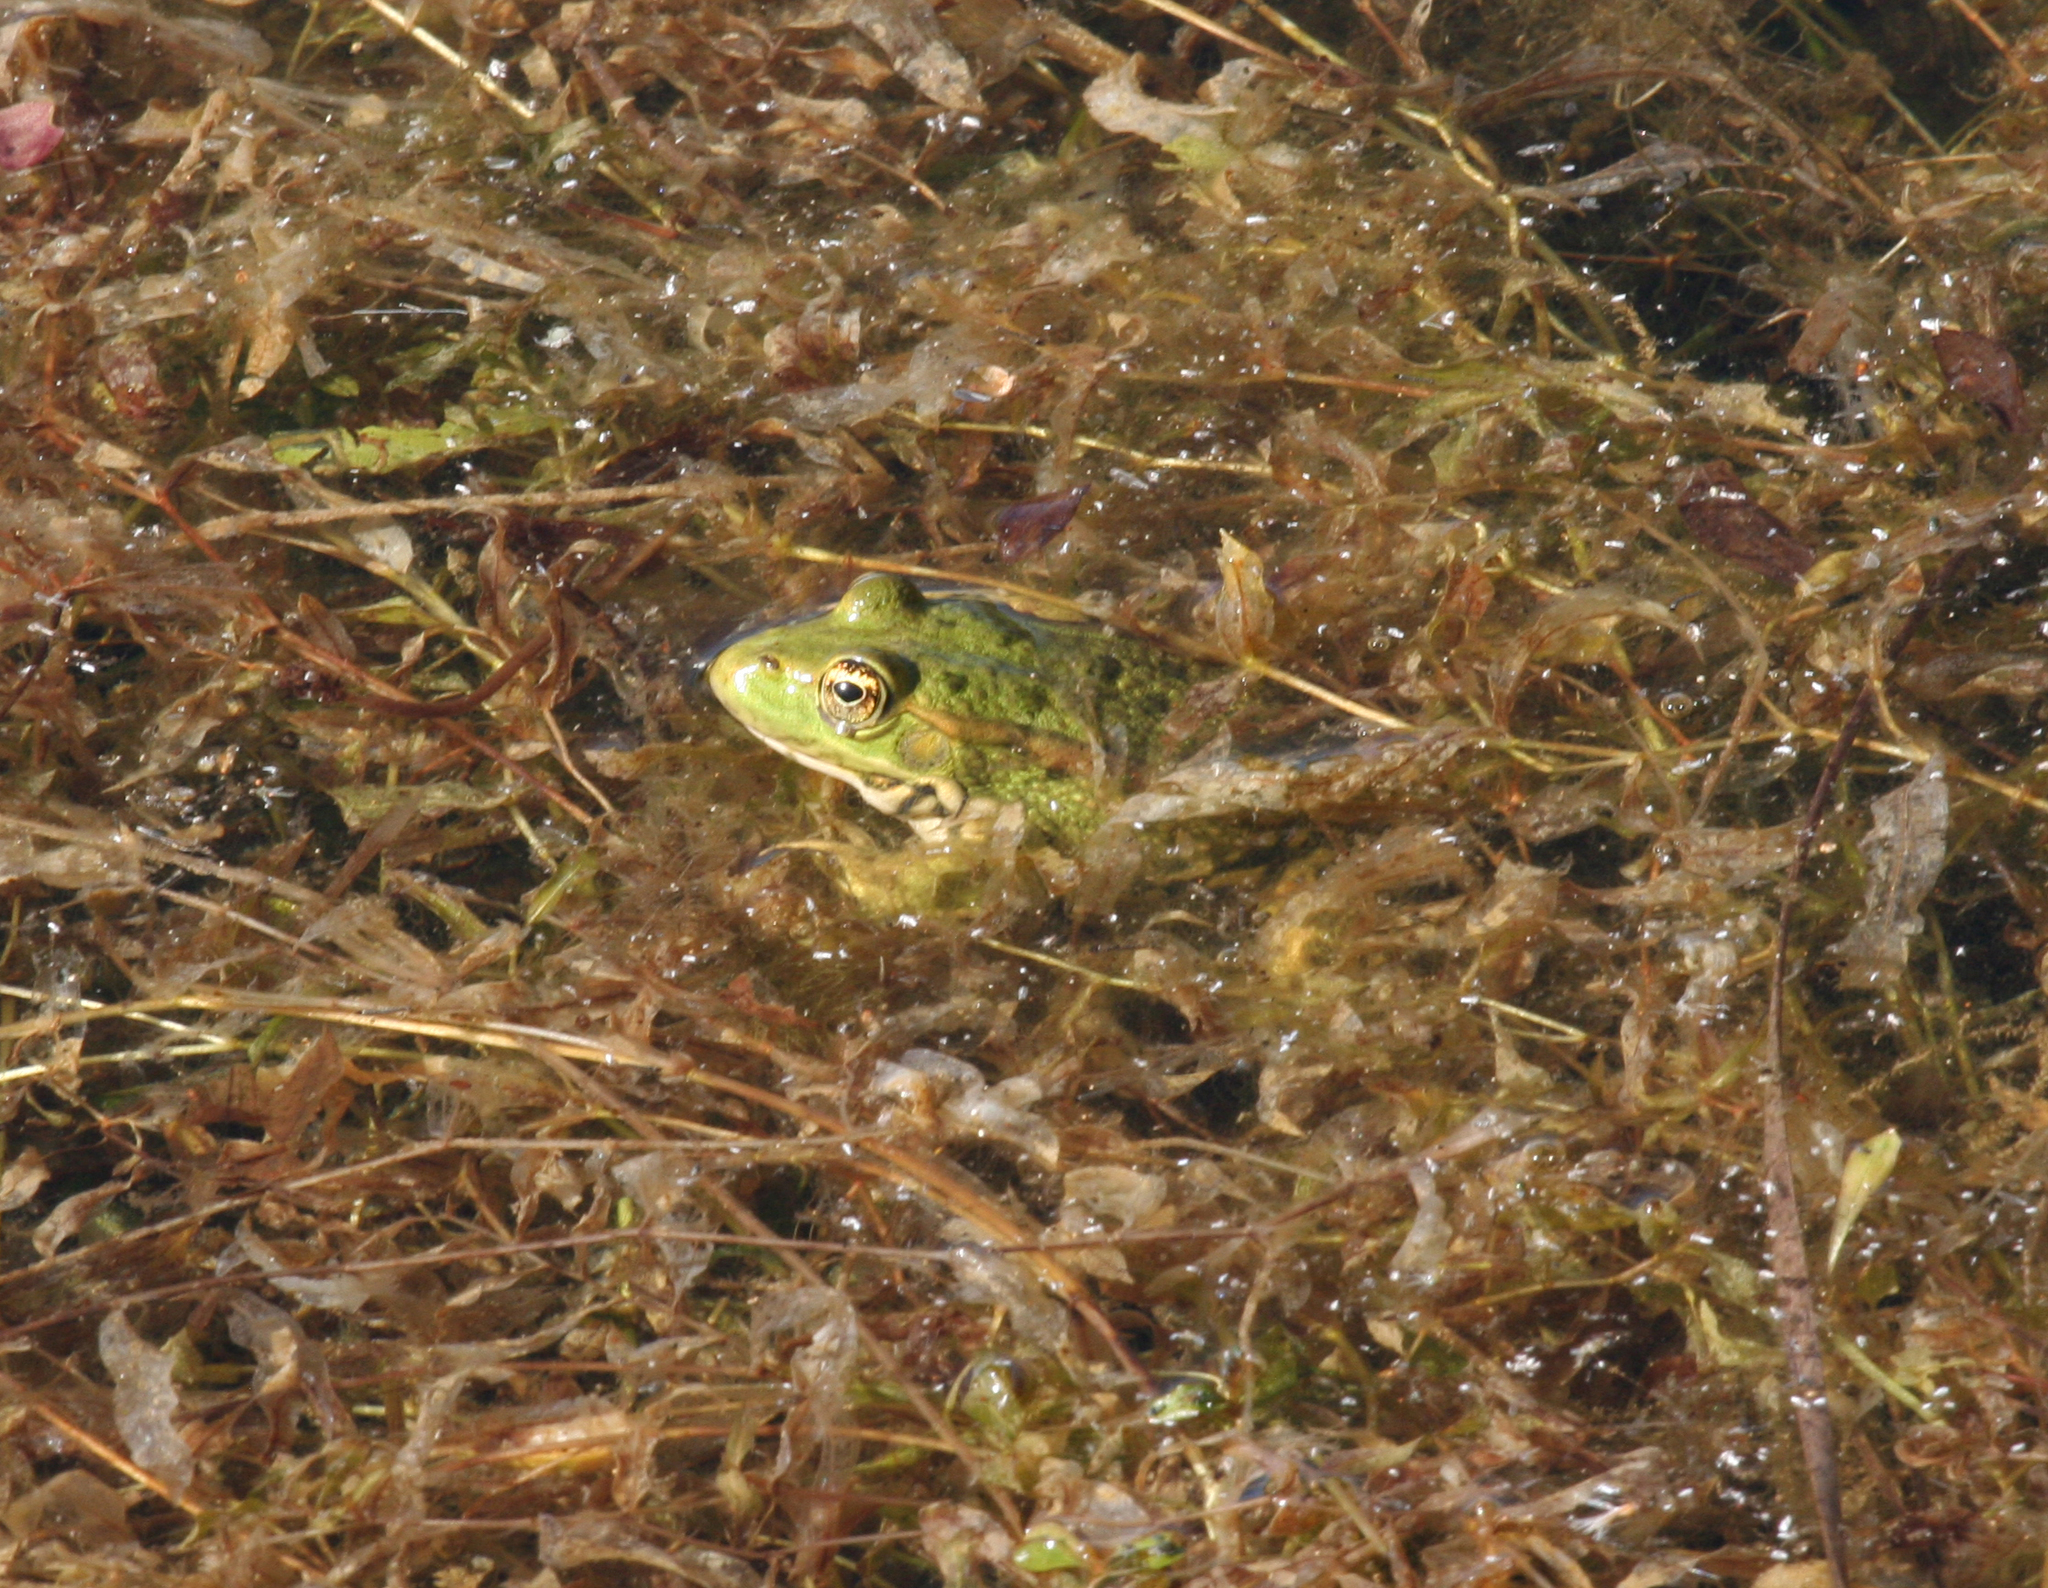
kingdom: Animalia
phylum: Chordata
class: Amphibia
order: Anura
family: Ranidae
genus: Pelophylax
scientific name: Pelophylax
